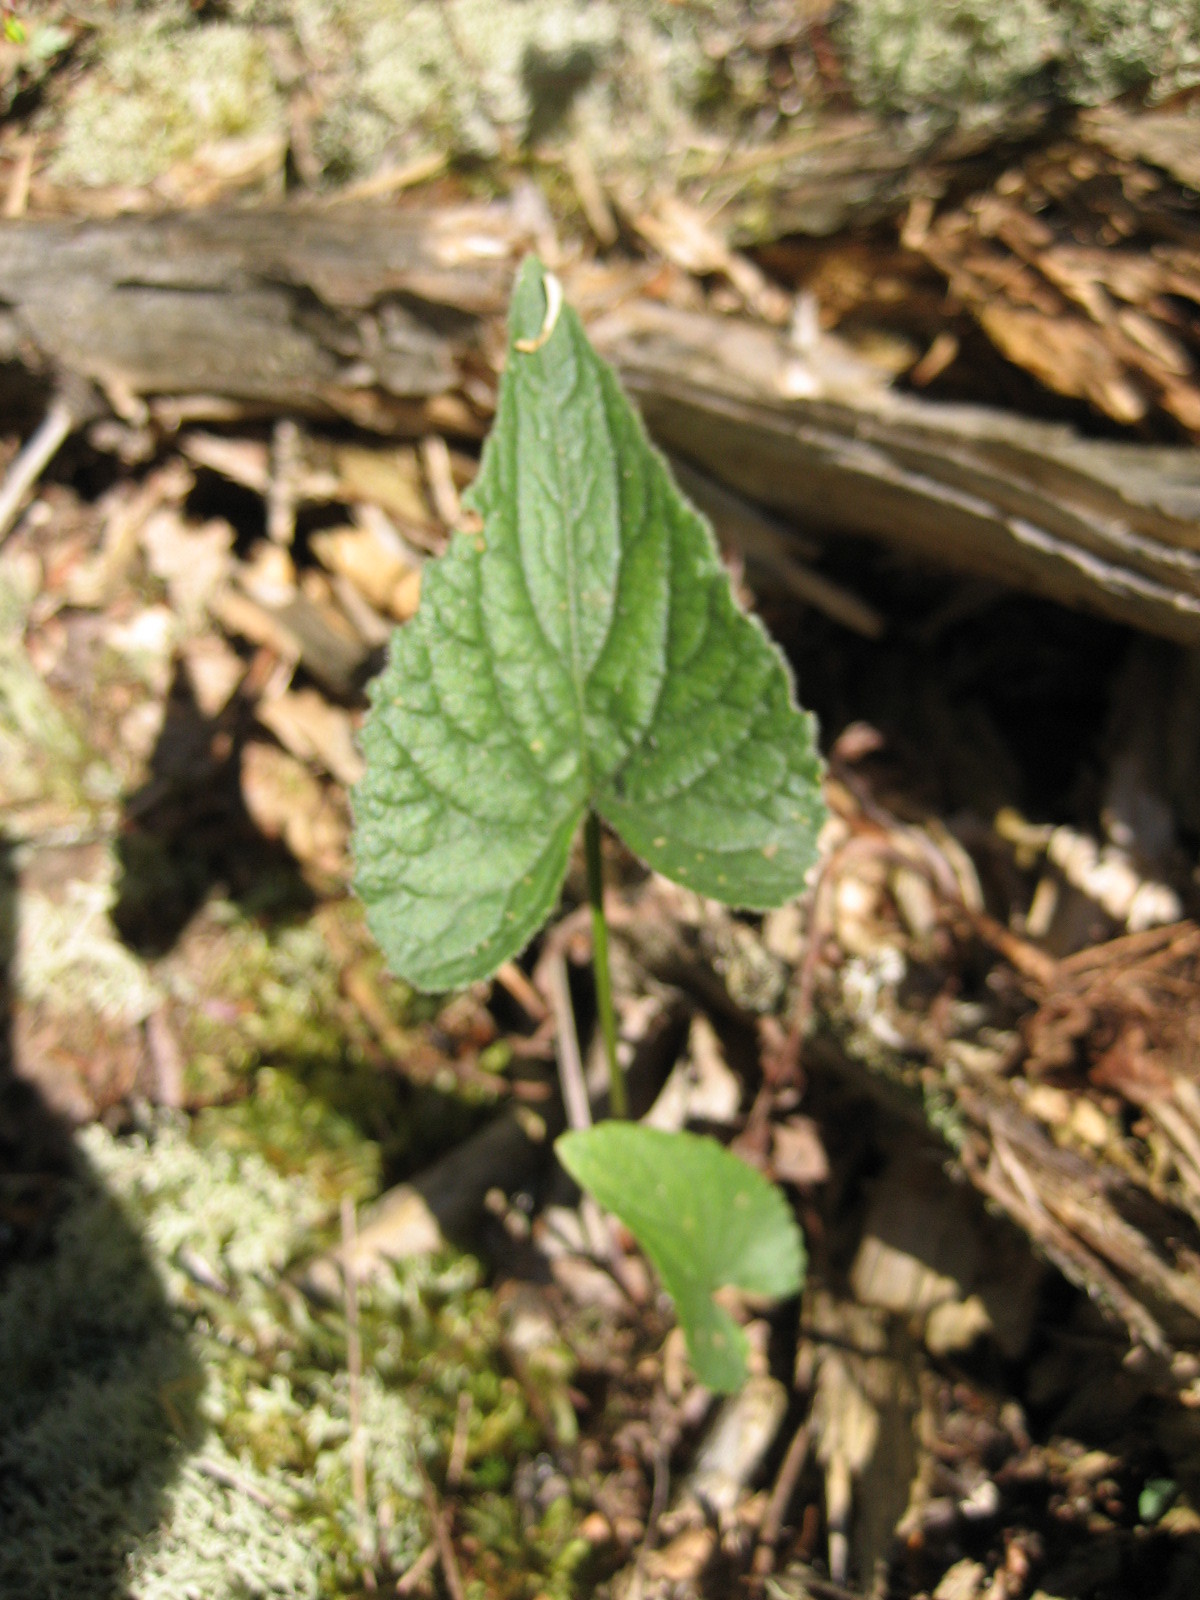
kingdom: Plantae
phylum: Tracheophyta
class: Magnoliopsida
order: Malpighiales
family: Violaceae
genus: Viola
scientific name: Viola novae-angliae
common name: New england blue violet
